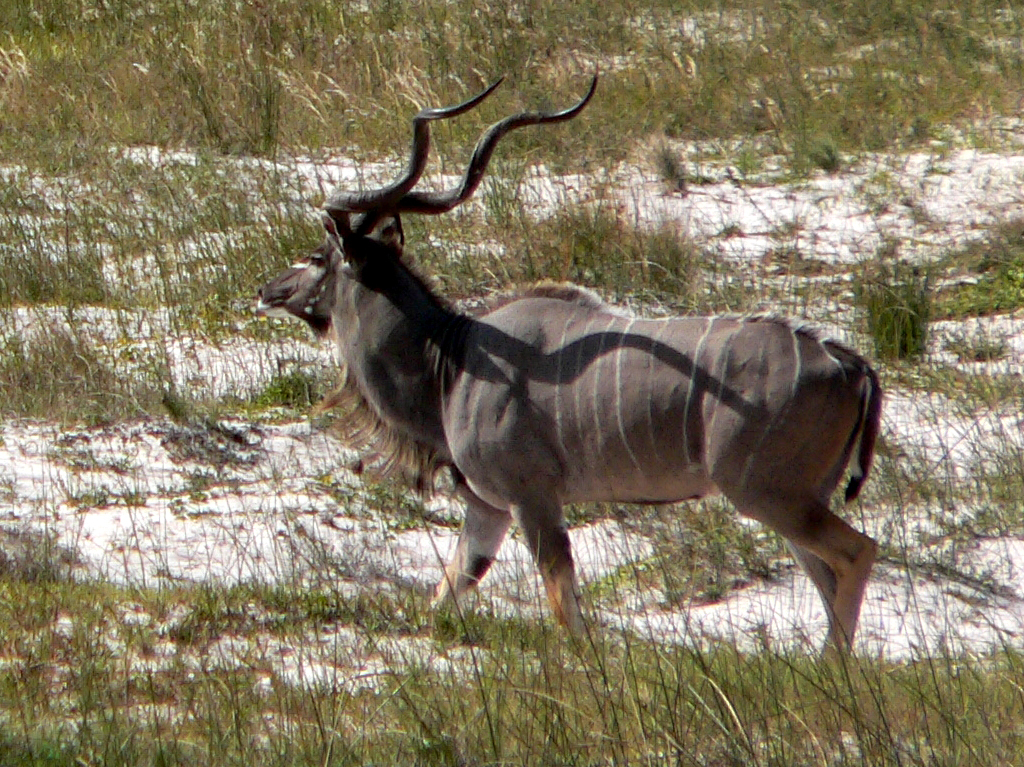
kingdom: Animalia
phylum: Chordata
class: Mammalia
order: Artiodactyla
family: Bovidae
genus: Tragelaphus
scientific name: Tragelaphus strepsiceros
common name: Greater kudu
